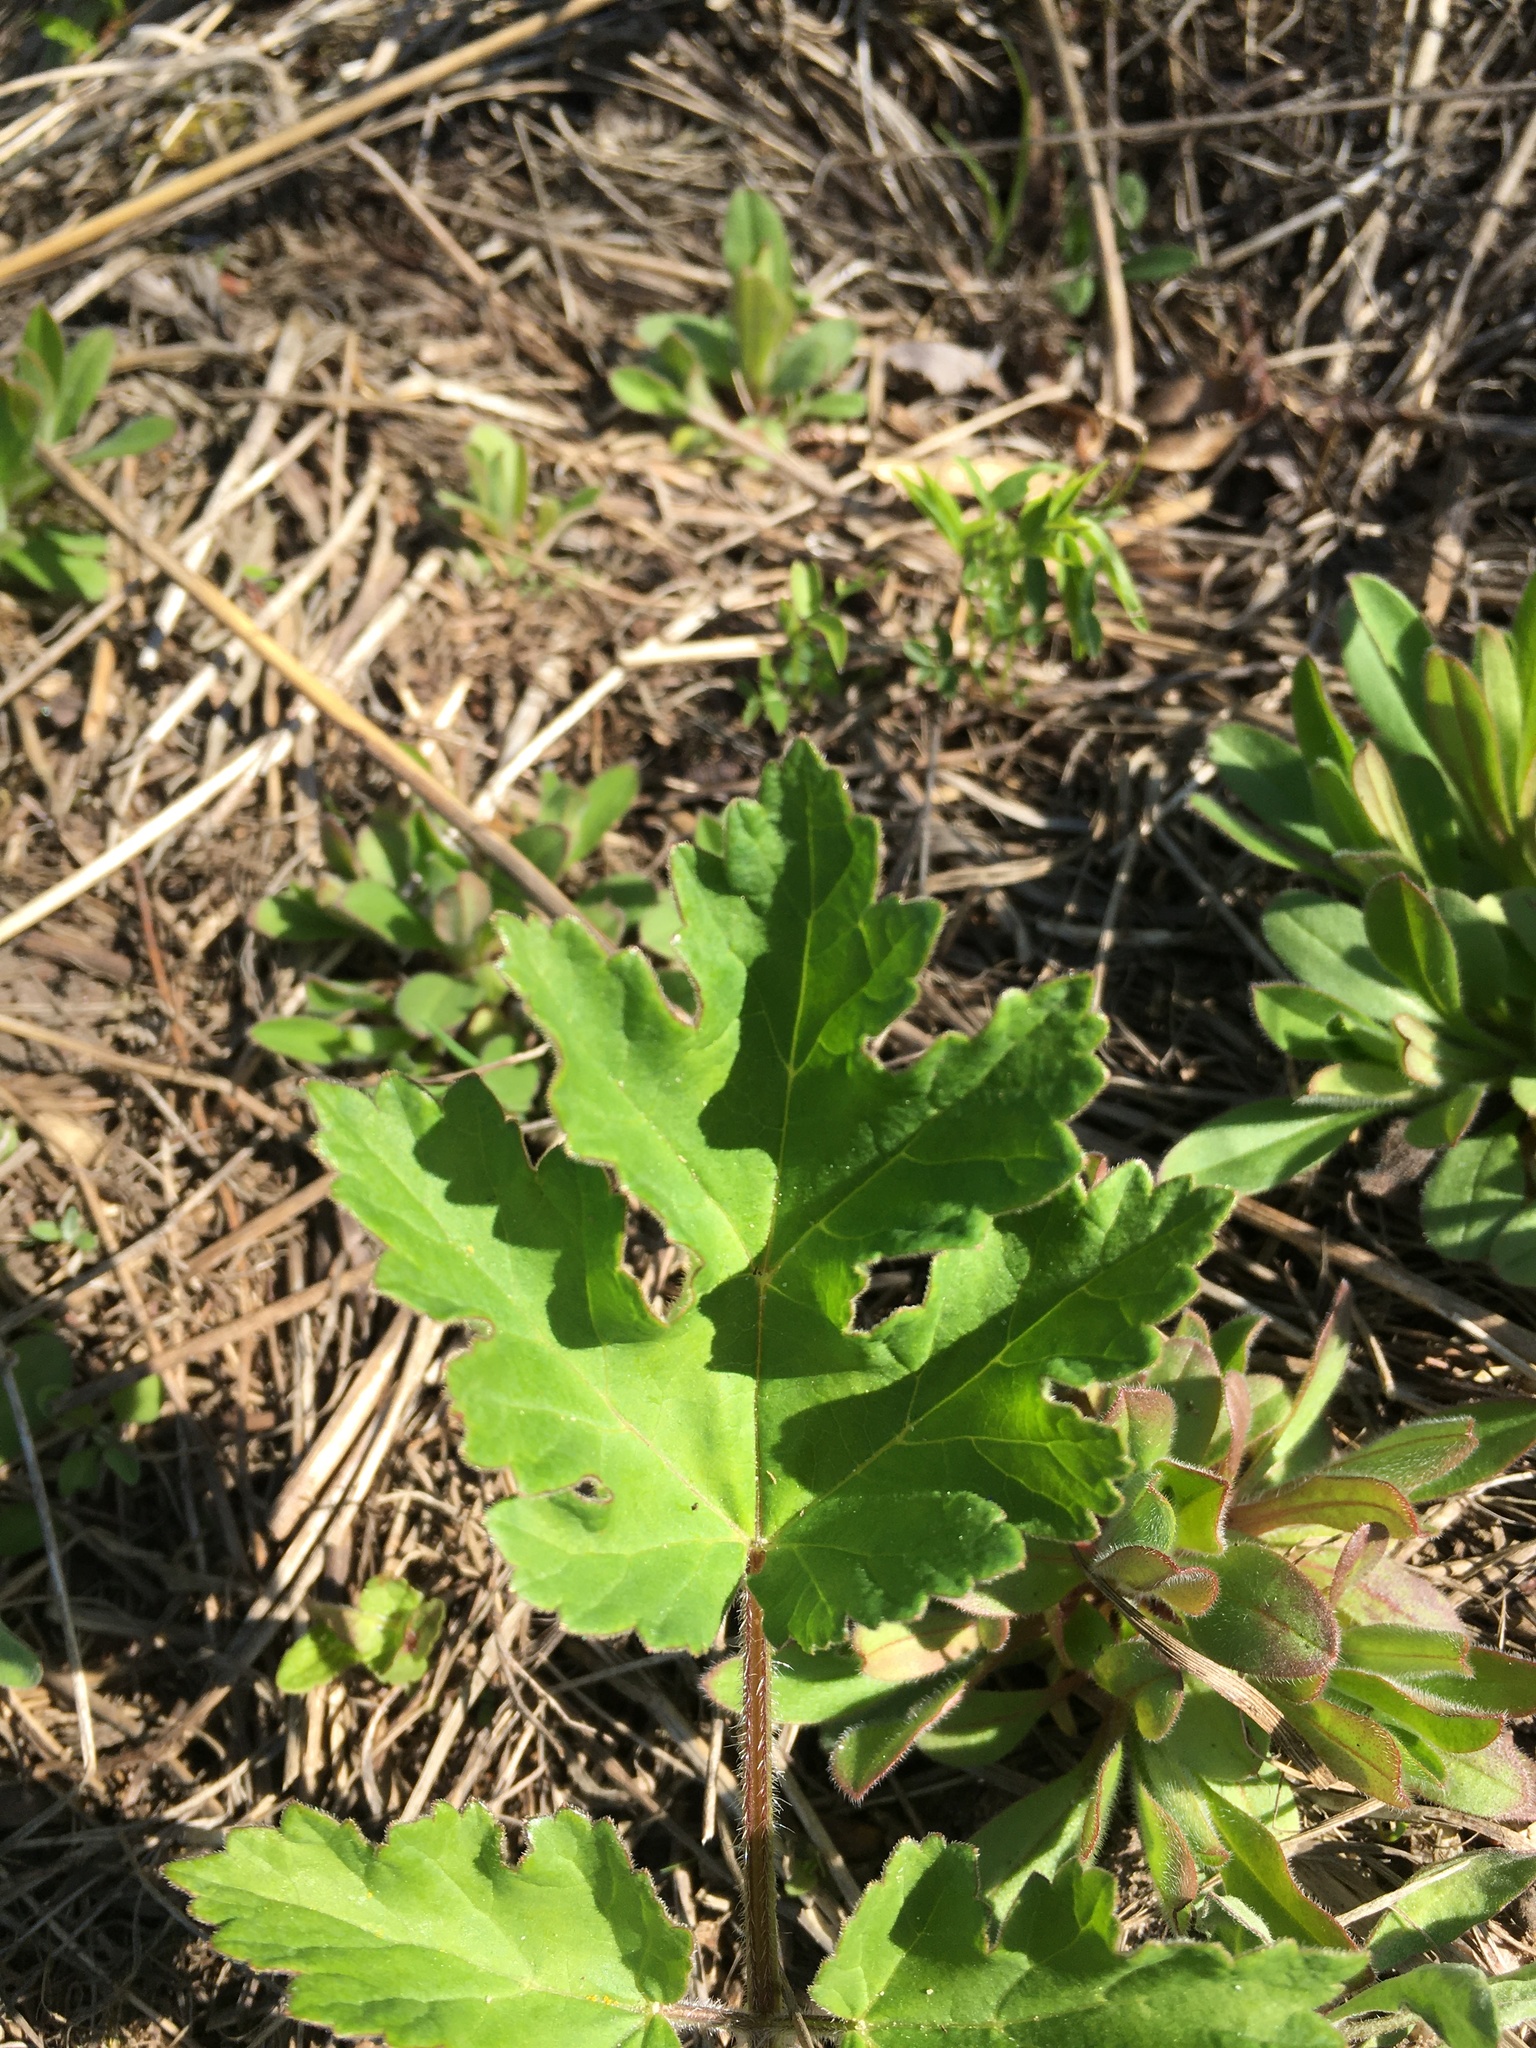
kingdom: Plantae
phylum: Tracheophyta
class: Magnoliopsida
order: Apiales
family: Apiaceae
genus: Heracleum
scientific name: Heracleum sphondylium
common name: Hogweed
